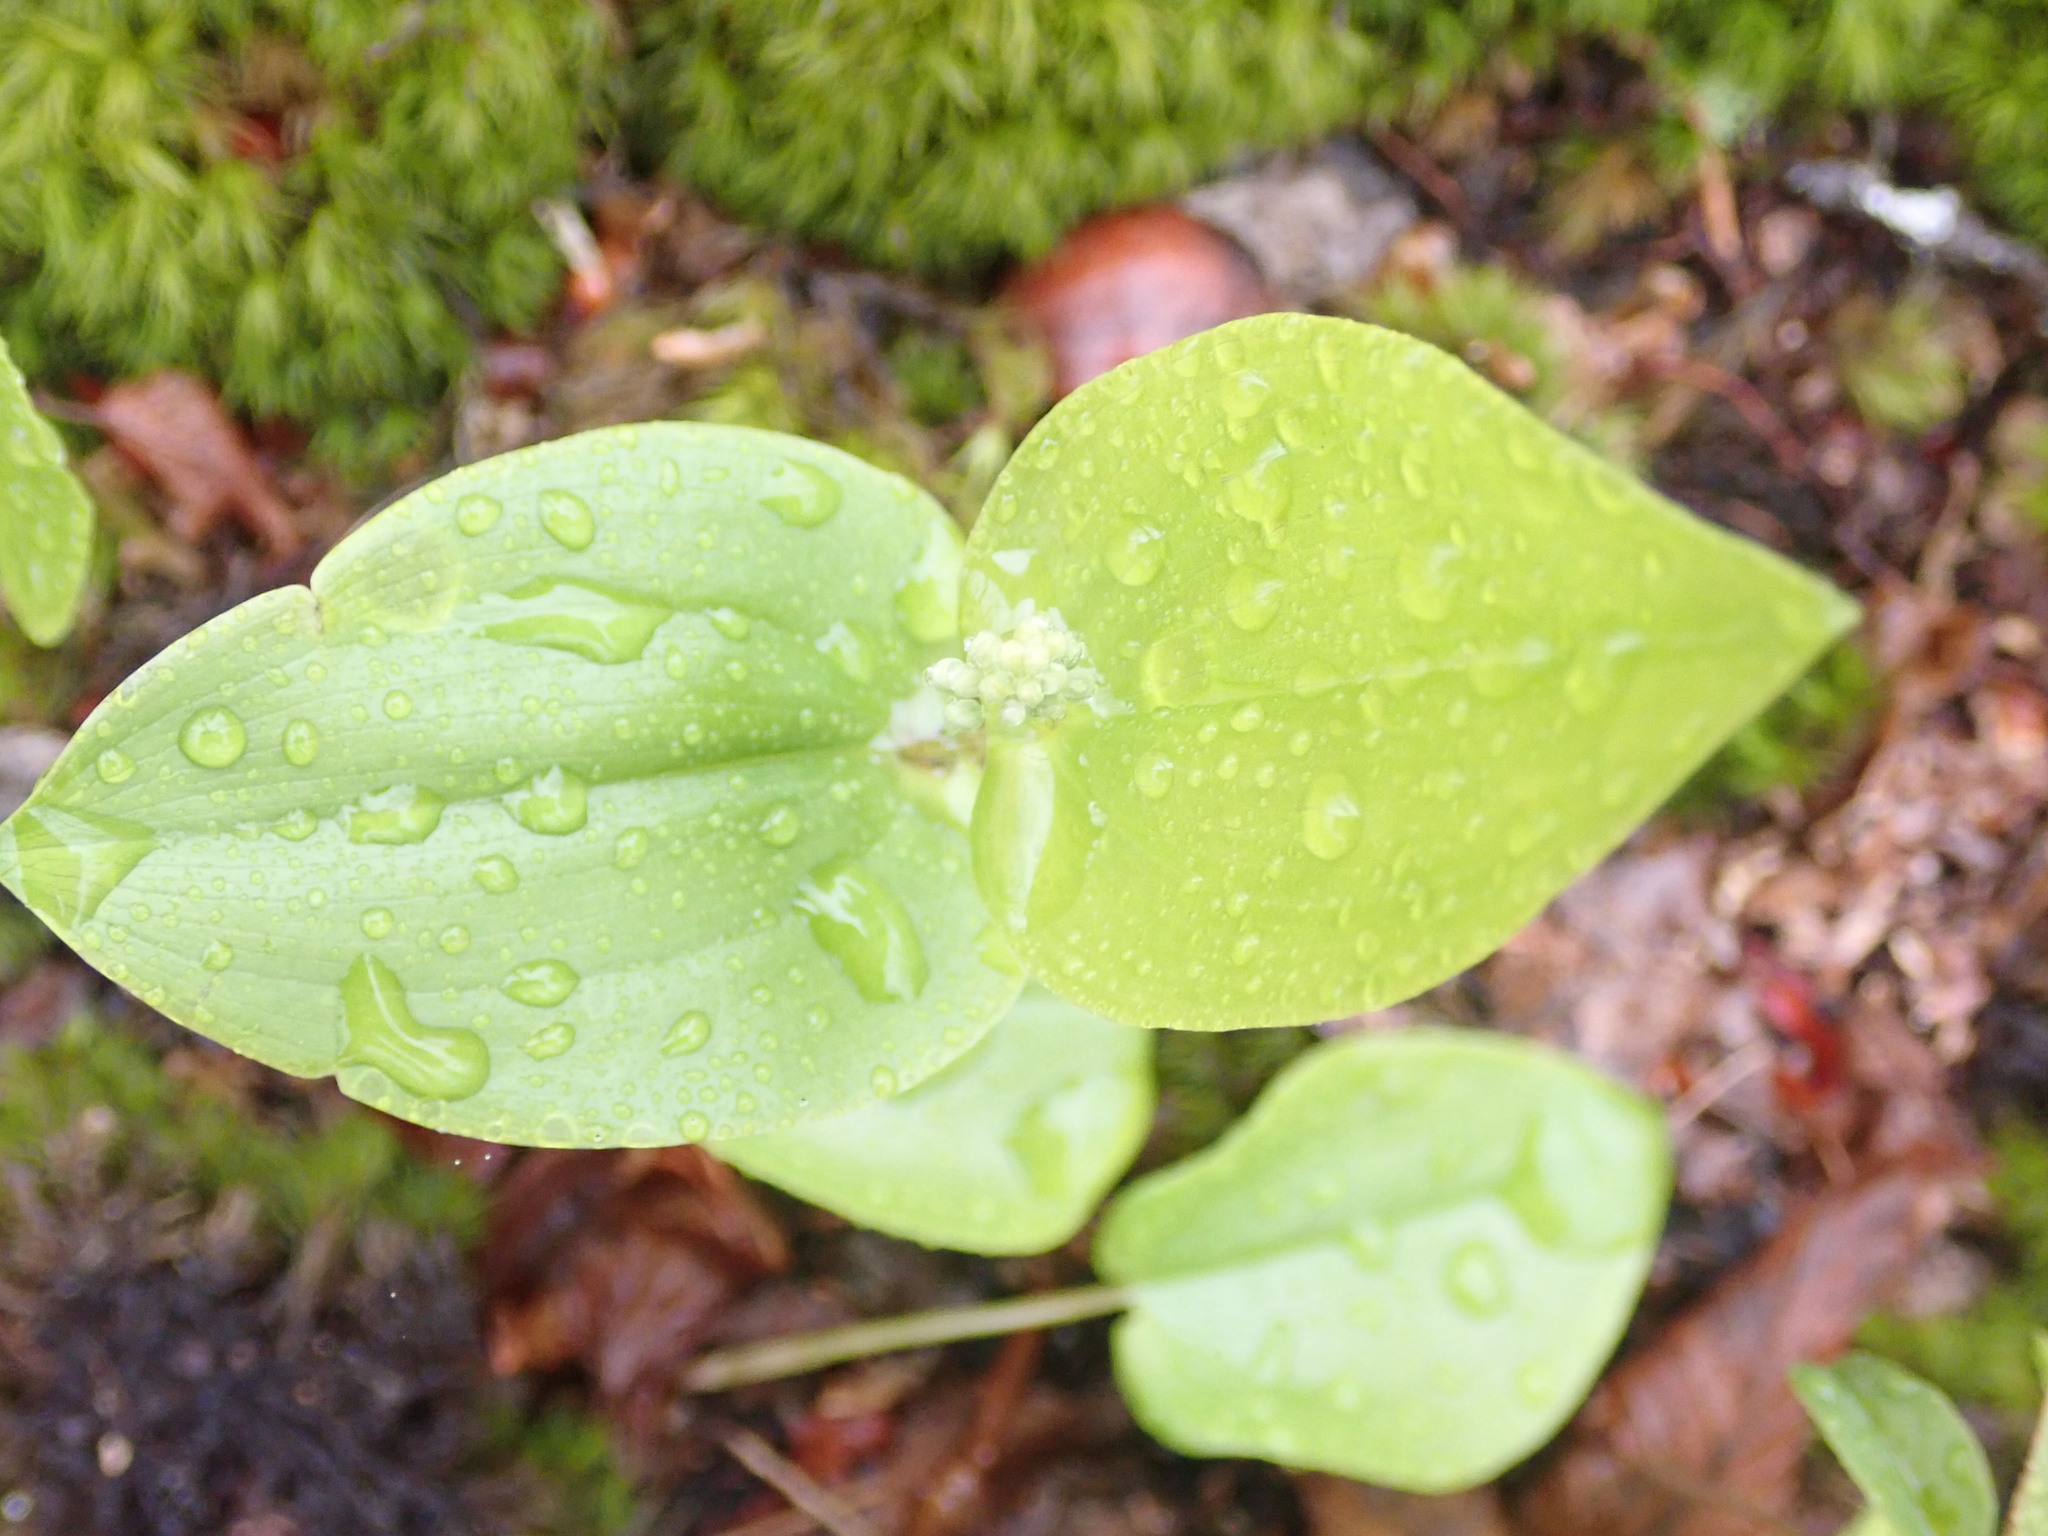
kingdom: Plantae
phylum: Tracheophyta
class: Liliopsida
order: Asparagales
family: Asparagaceae
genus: Maianthemum
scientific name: Maianthemum canadense
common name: False lily-of-the-valley
